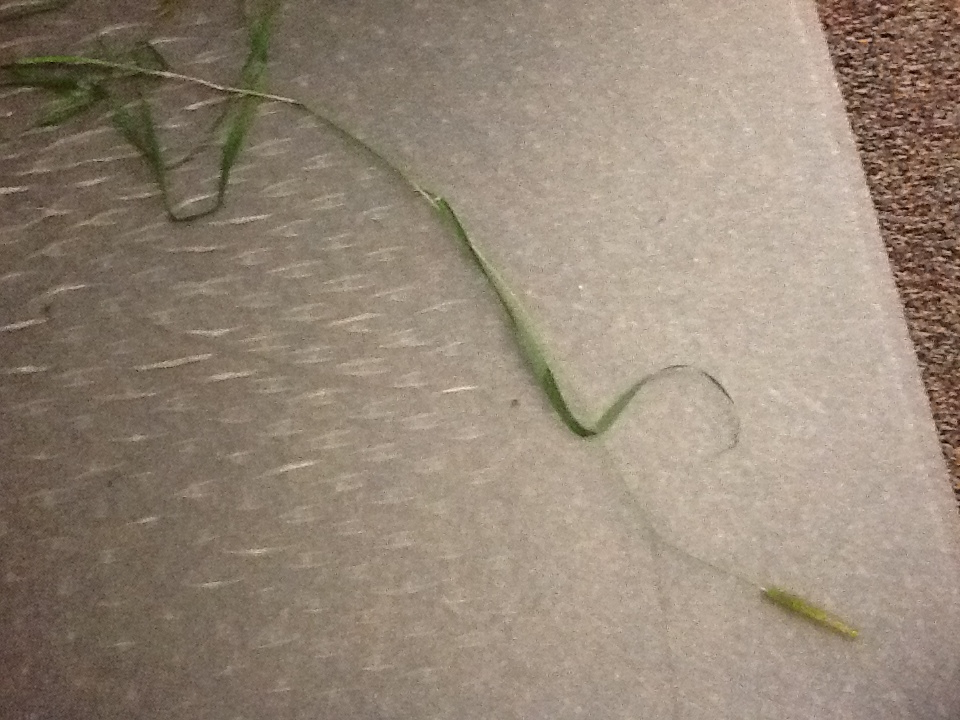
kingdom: Plantae
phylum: Tracheophyta
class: Liliopsida
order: Poales
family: Poaceae
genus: Setaria
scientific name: Setaria pumila
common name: Yellow bristle-grass
